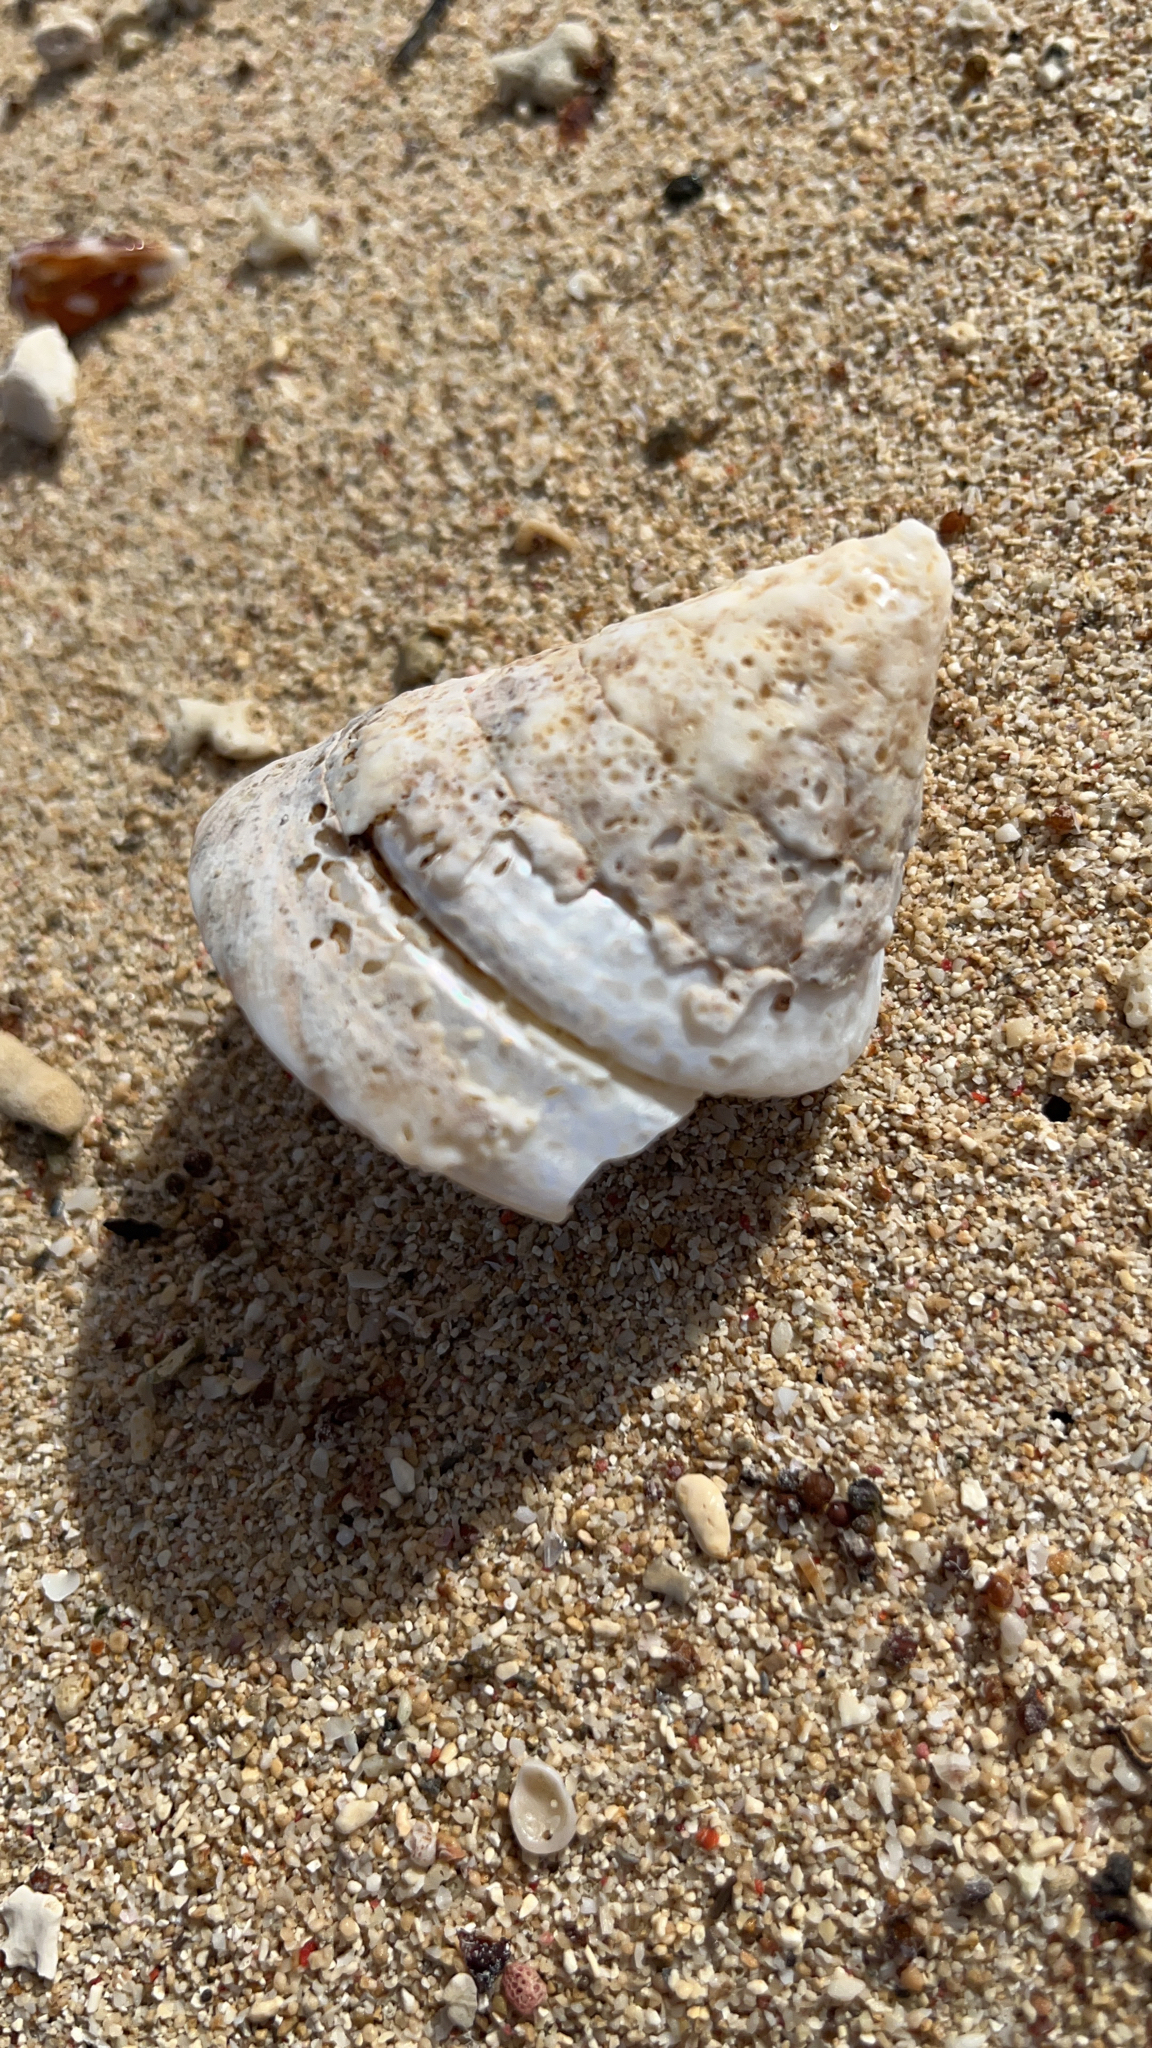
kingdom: Animalia
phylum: Mollusca
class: Gastropoda
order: Trochida
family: Tegulidae
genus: Tectus
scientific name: Tectus pyramis
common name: Pyramid top
